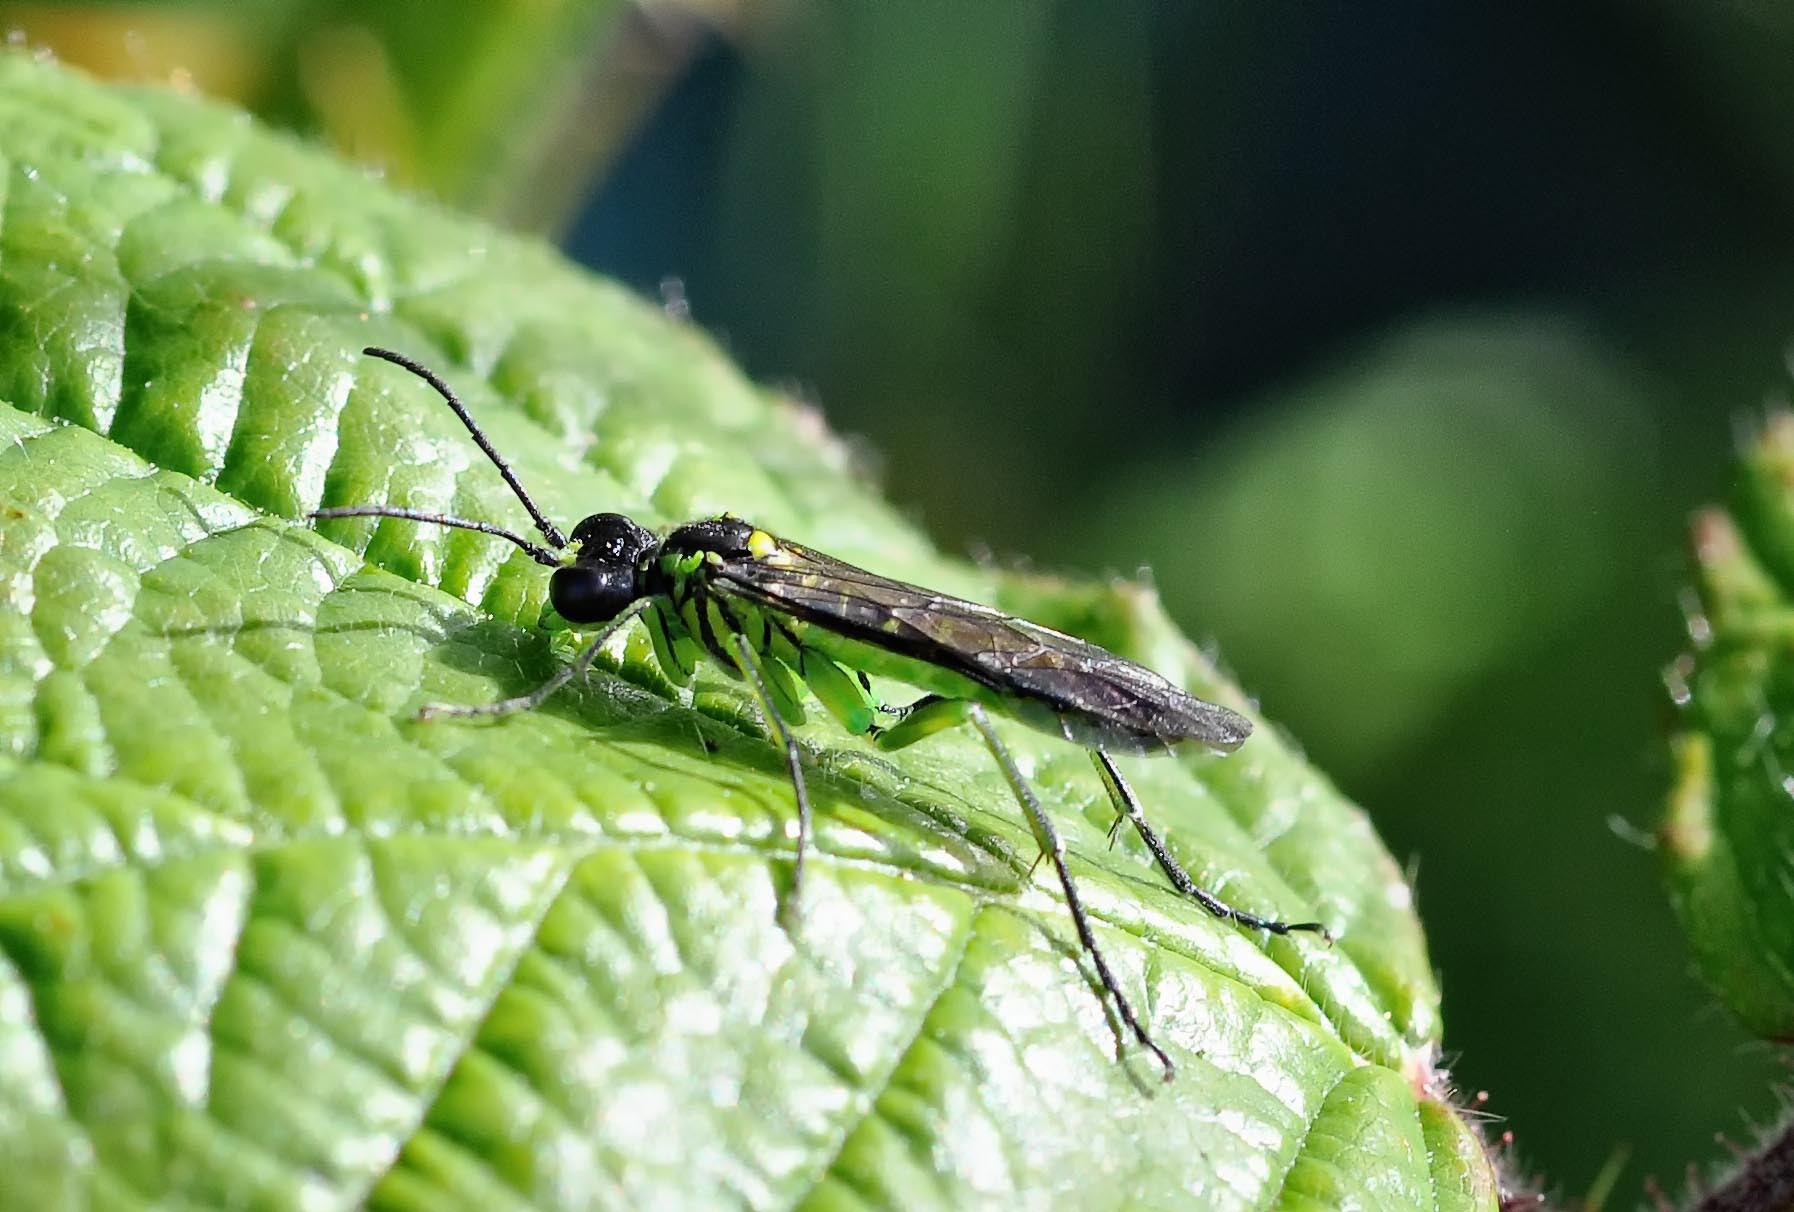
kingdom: Animalia
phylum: Arthropoda
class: Insecta
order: Hymenoptera
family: Tenthredinidae
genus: Tenthredo
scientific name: Tenthredo mesomela
